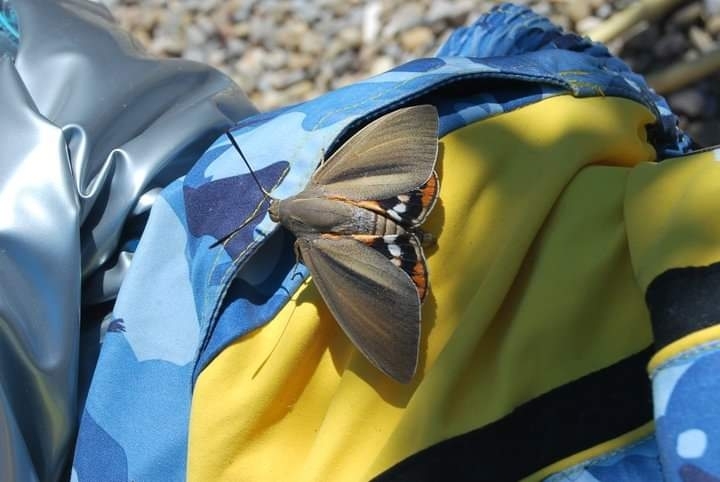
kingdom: Animalia
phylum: Arthropoda
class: Insecta
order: Lepidoptera
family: Castniidae
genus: Paysandisia
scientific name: Paysandisia archon
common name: Palm moth
